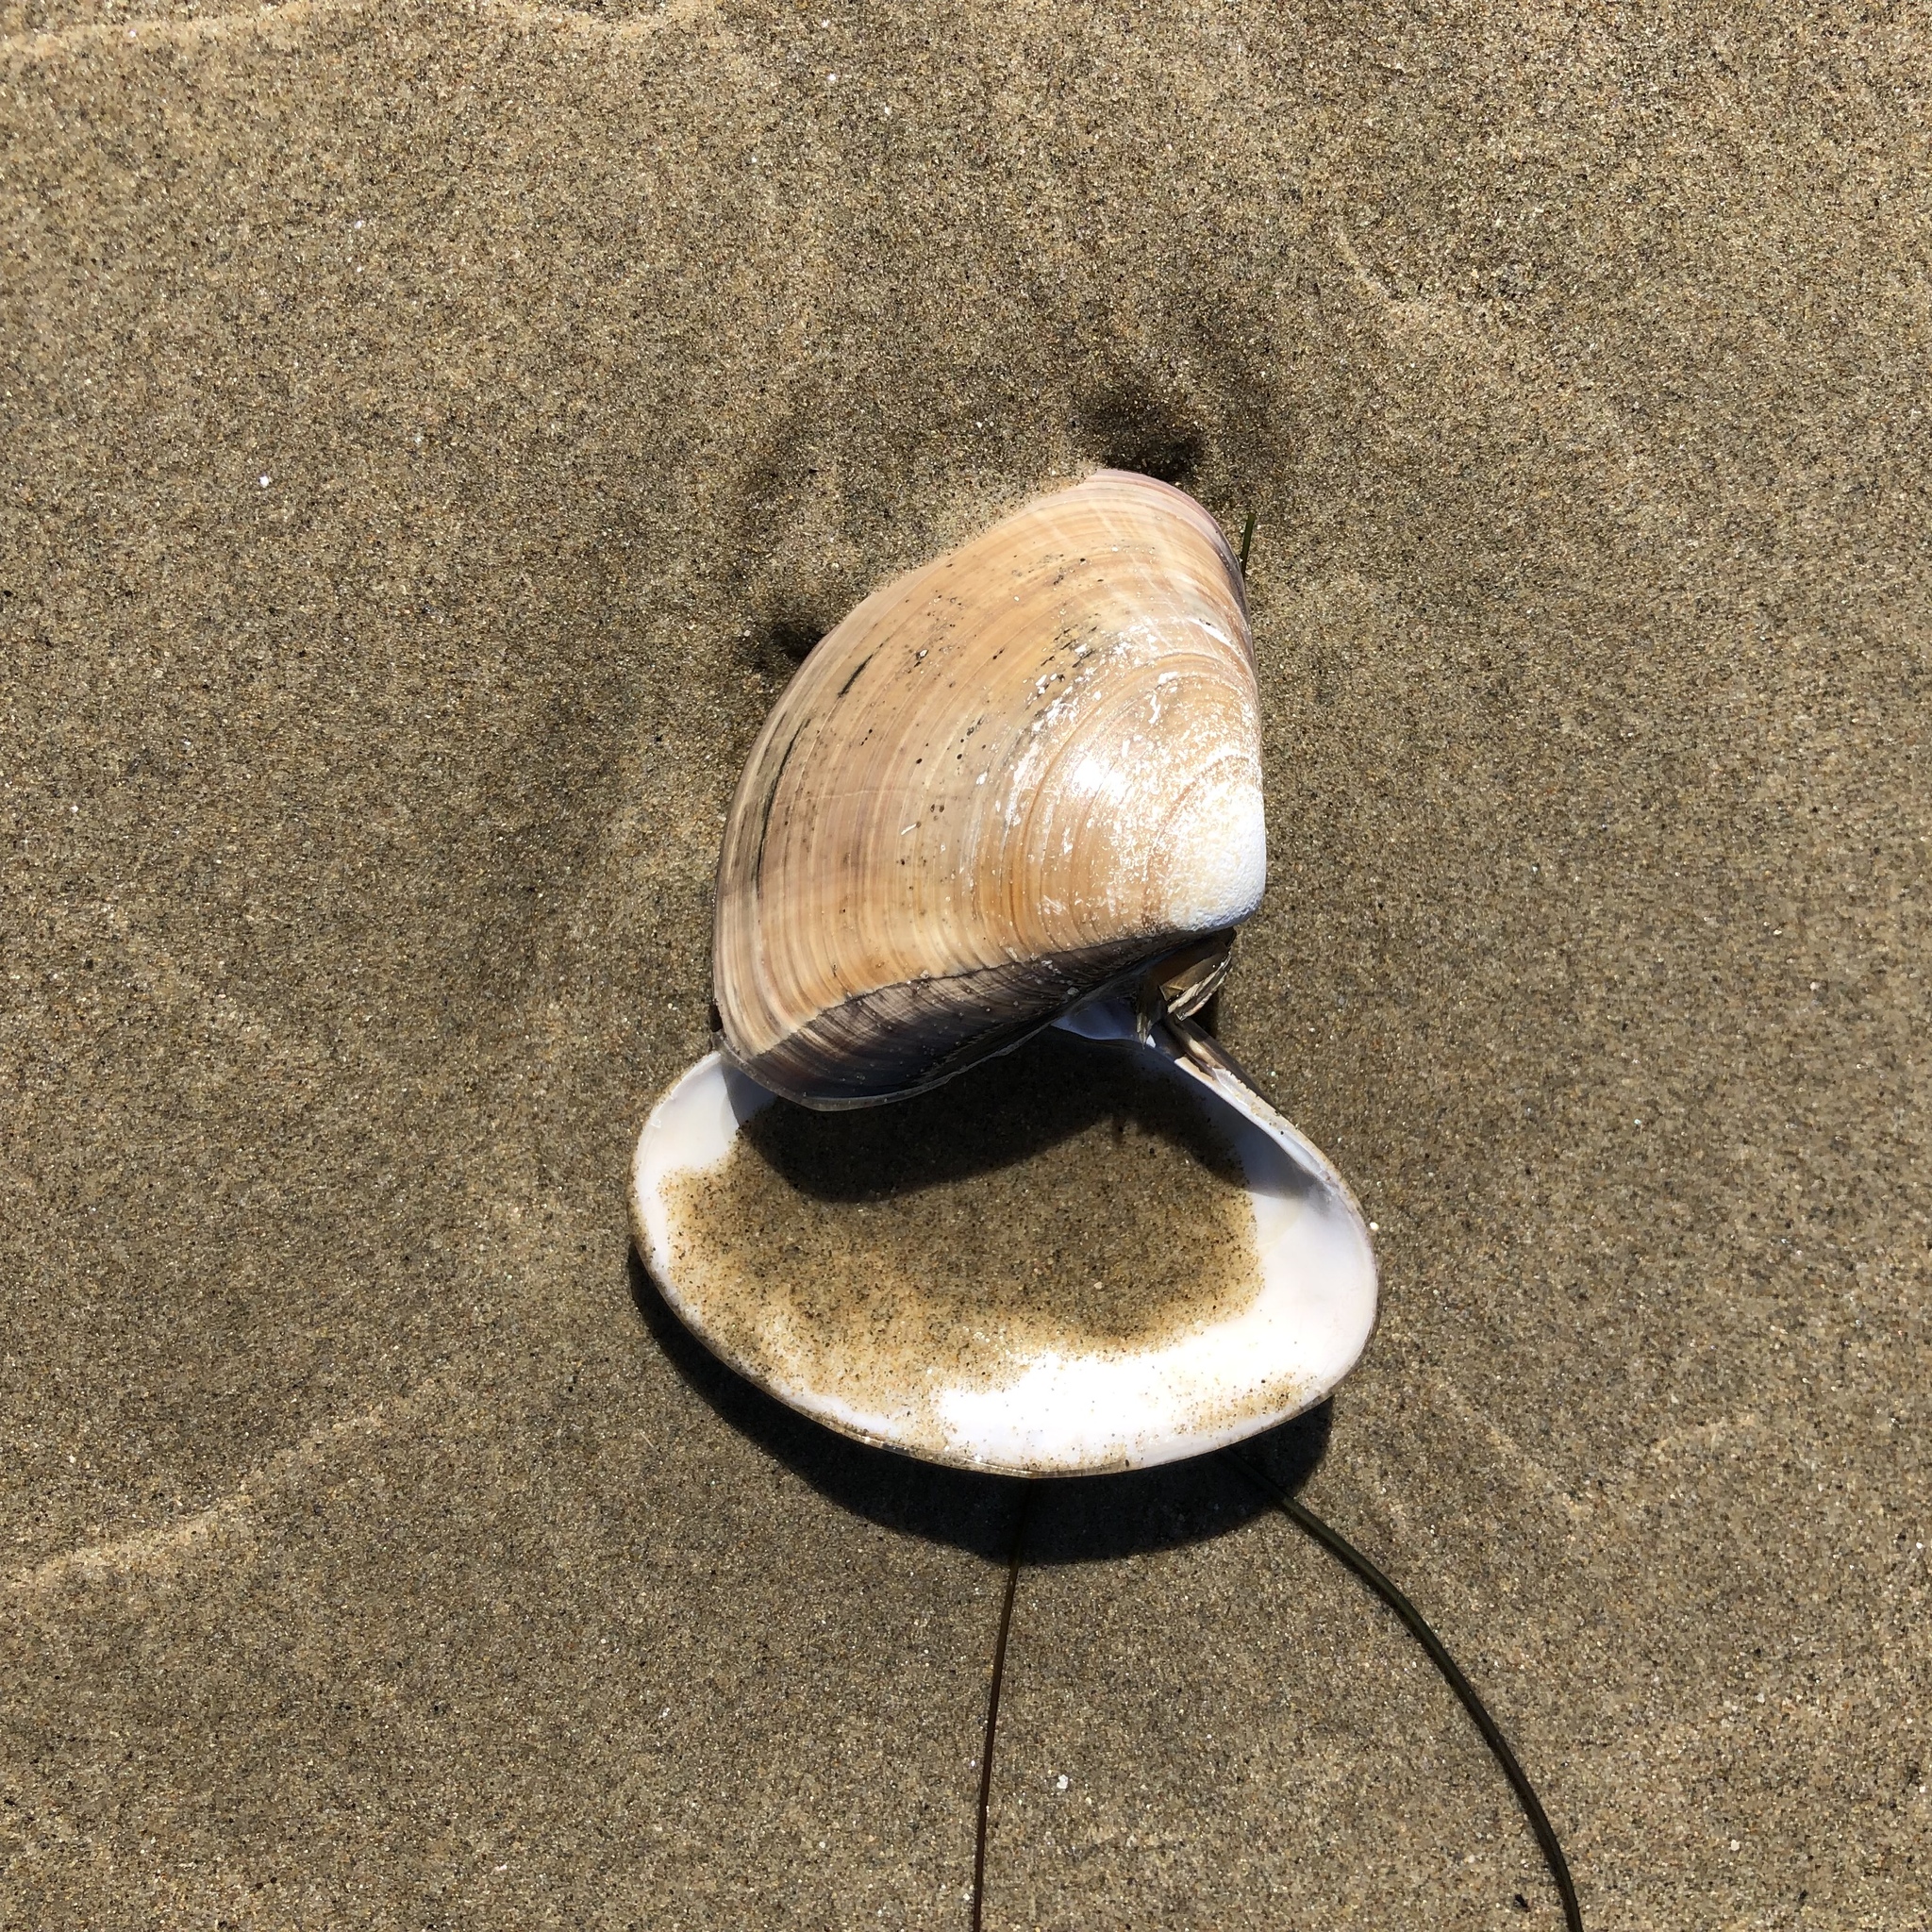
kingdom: Animalia
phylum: Mollusca
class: Bivalvia
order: Venerida
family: Veneridae
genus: Tivela
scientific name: Tivela stultorum
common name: Pismo clam
